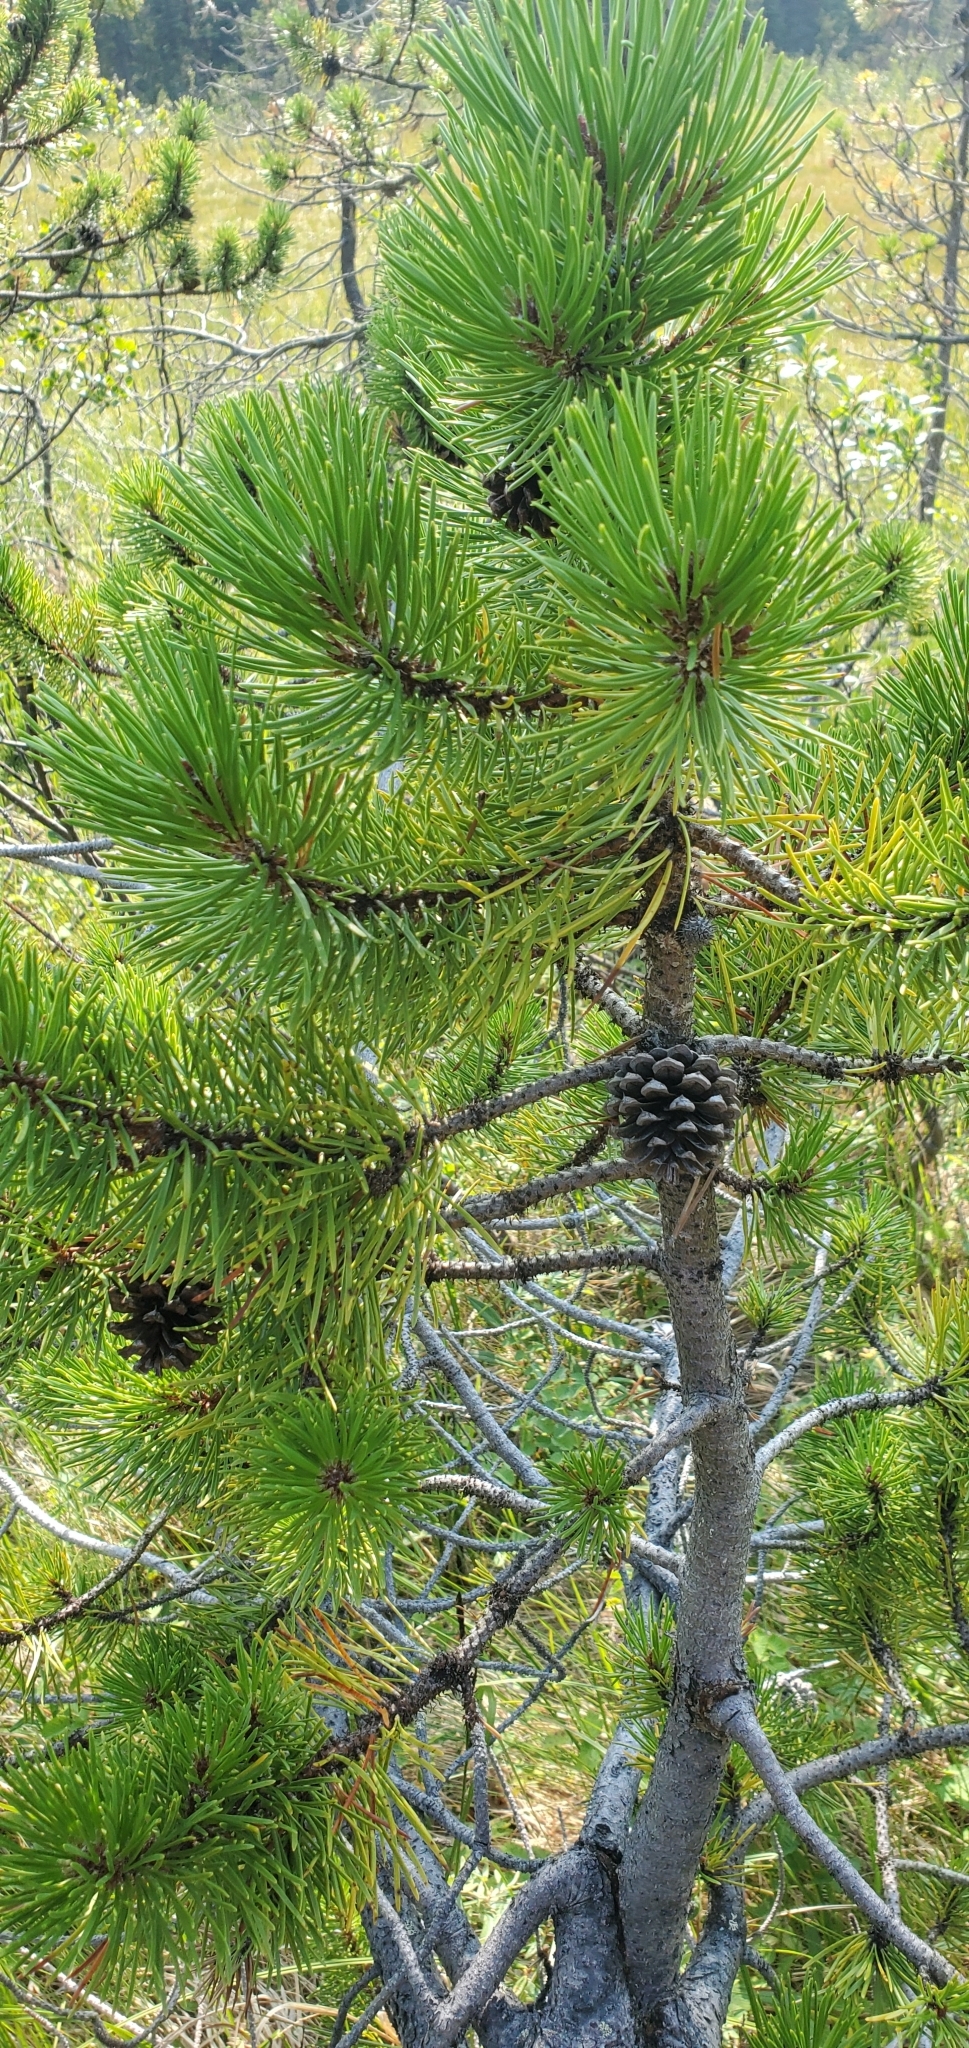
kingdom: Plantae
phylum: Tracheophyta
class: Pinopsida
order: Pinales
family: Pinaceae
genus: Pinus
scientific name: Pinus contorta
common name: Lodgepole pine
